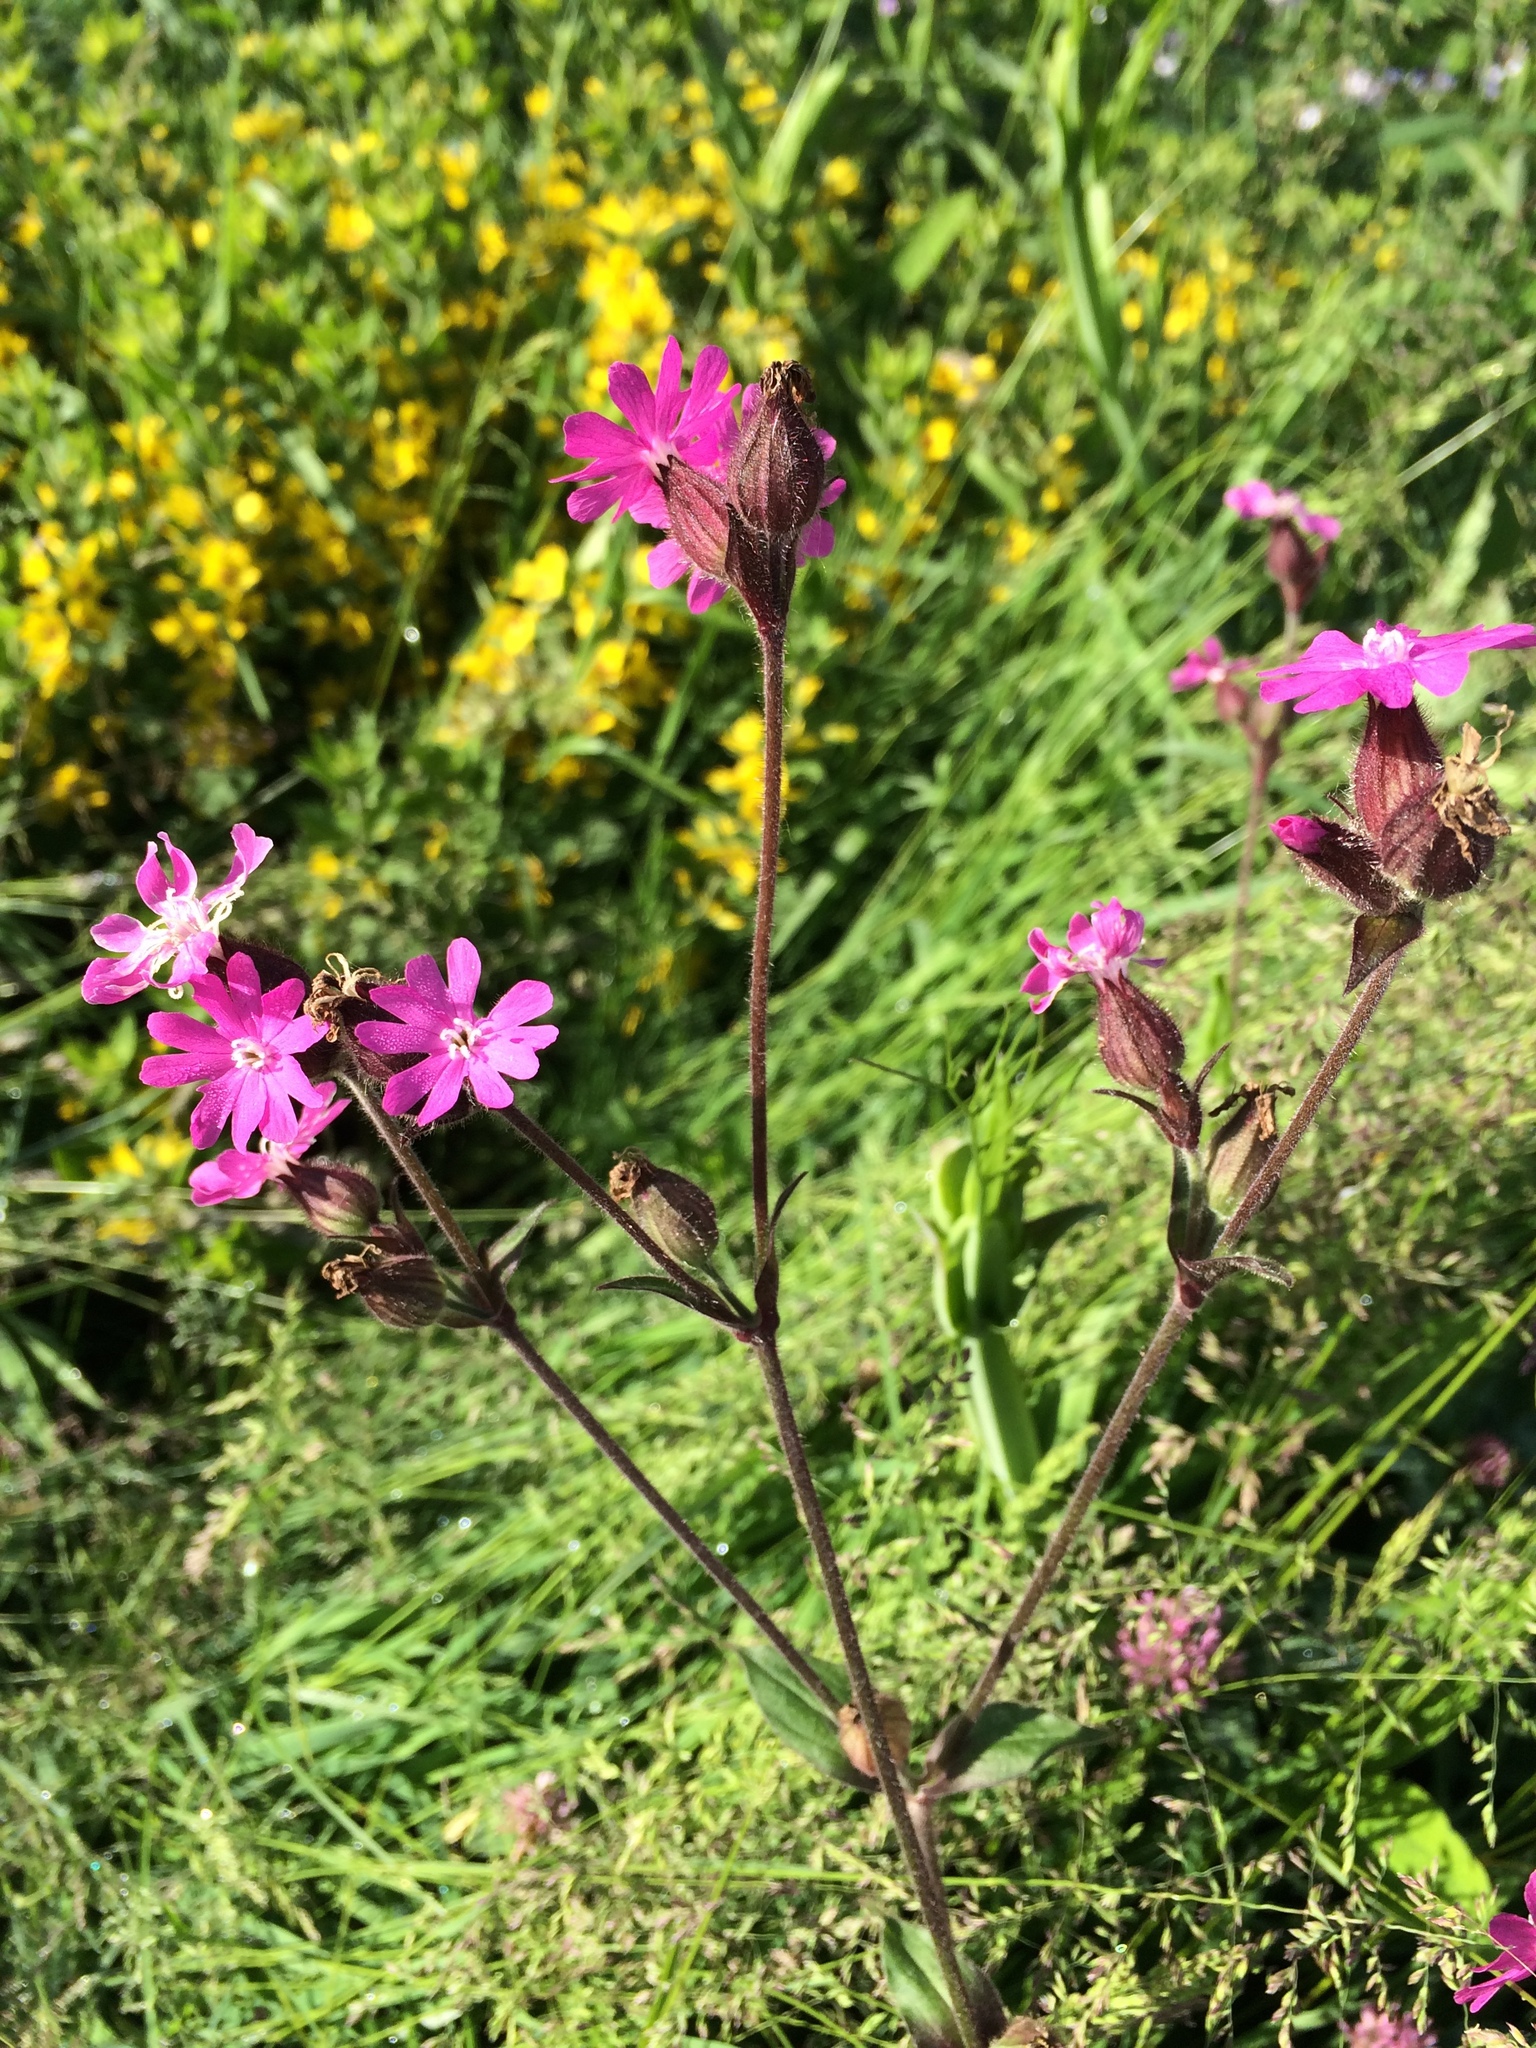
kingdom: Plantae
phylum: Tracheophyta
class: Magnoliopsida
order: Caryophyllales
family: Caryophyllaceae
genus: Silene
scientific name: Silene dioica
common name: Red campion
